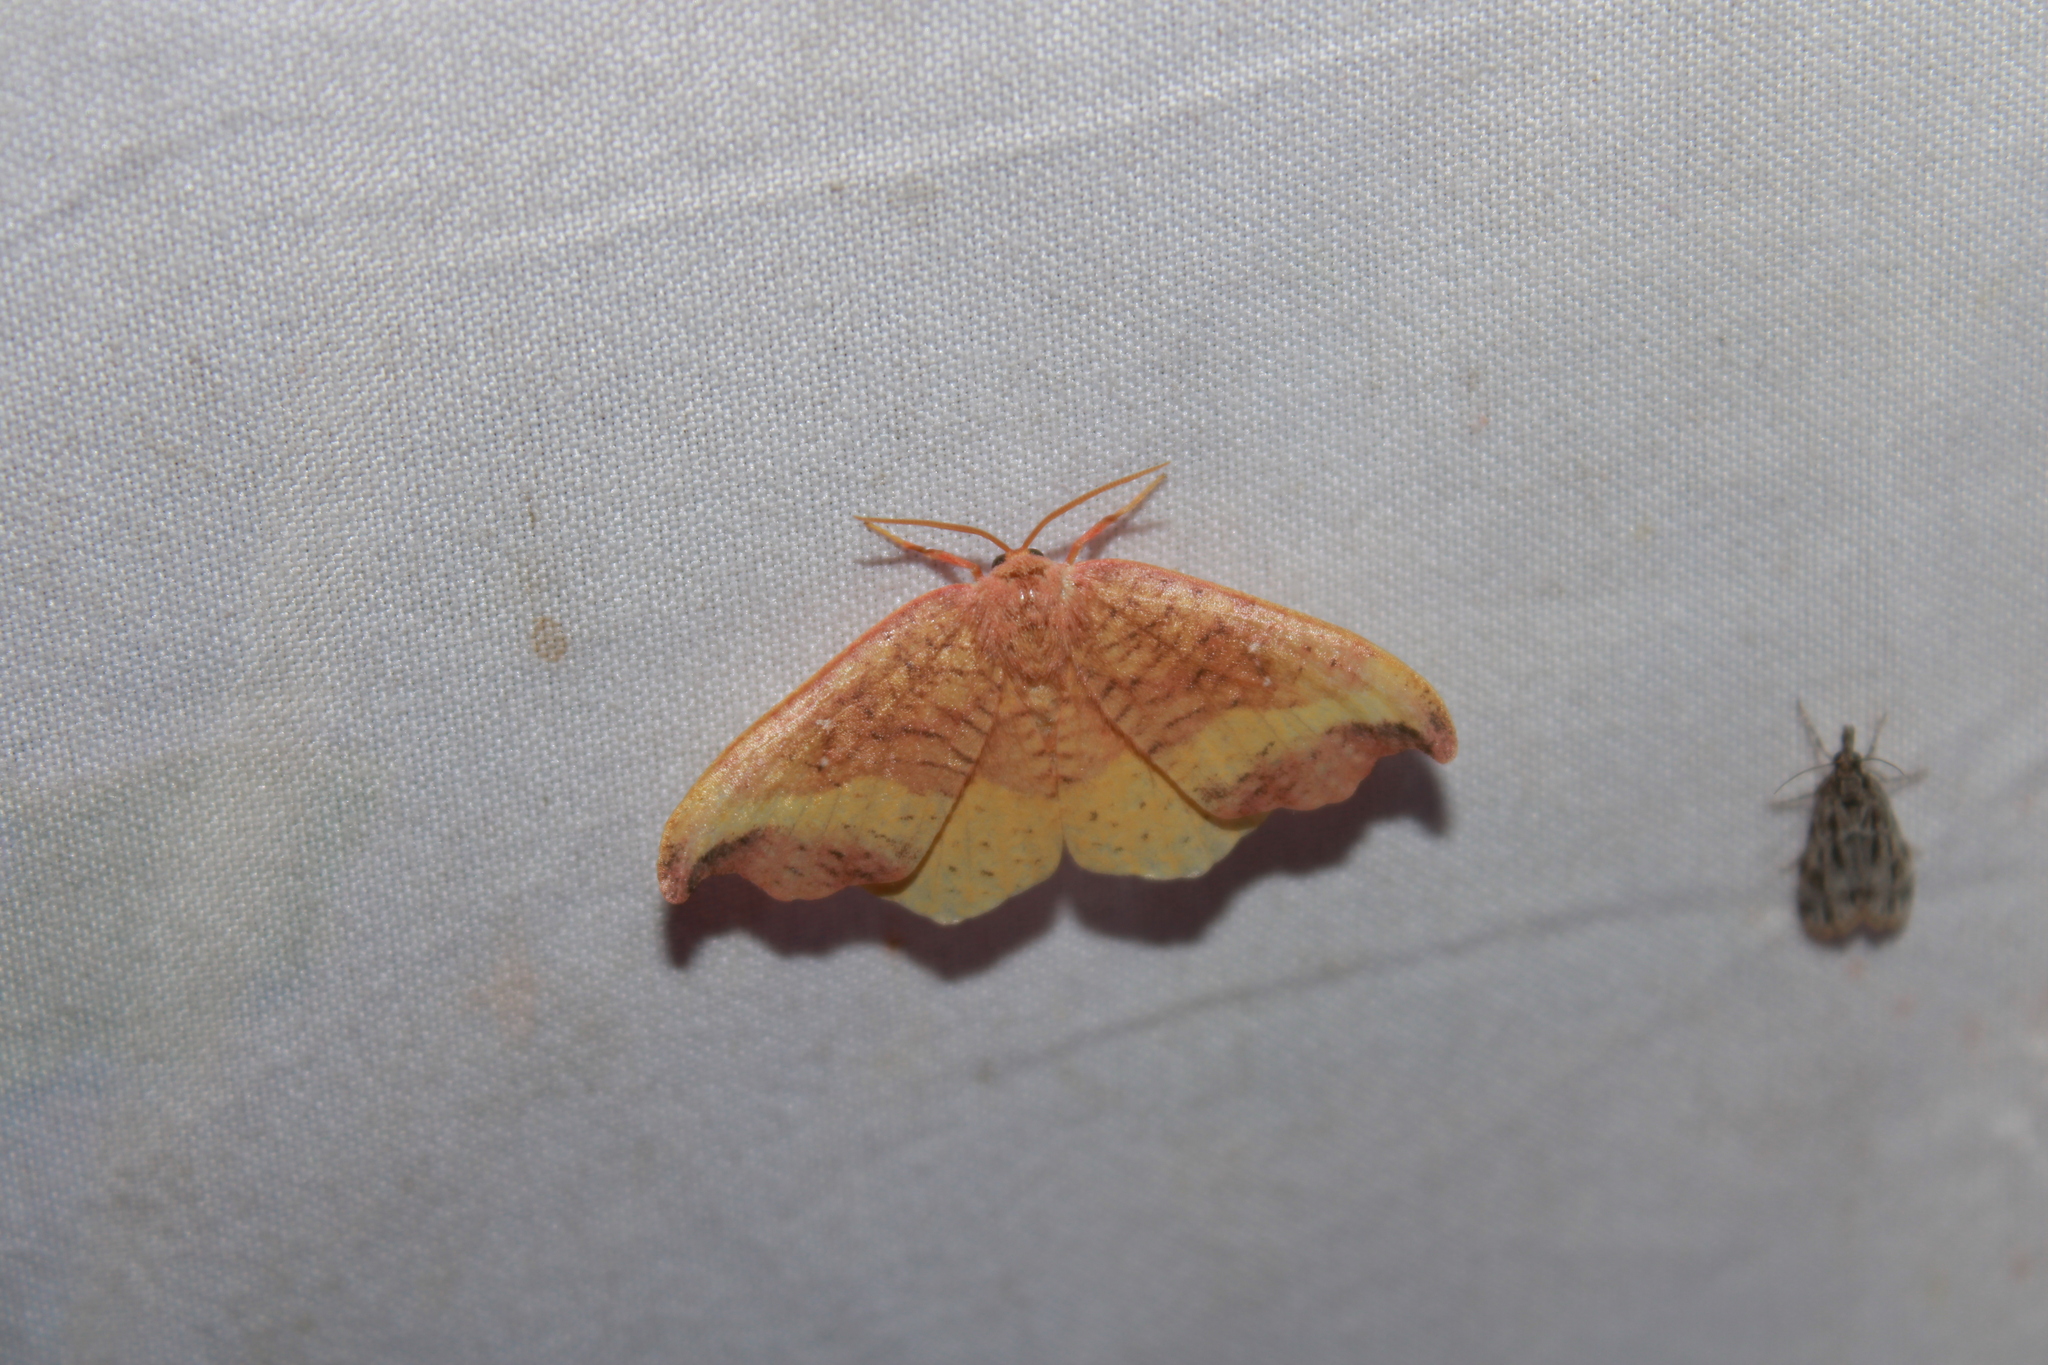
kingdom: Animalia
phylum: Arthropoda
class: Insecta
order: Lepidoptera
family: Drepanidae
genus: Oreta
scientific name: Oreta rosea
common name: Rose hooktip
